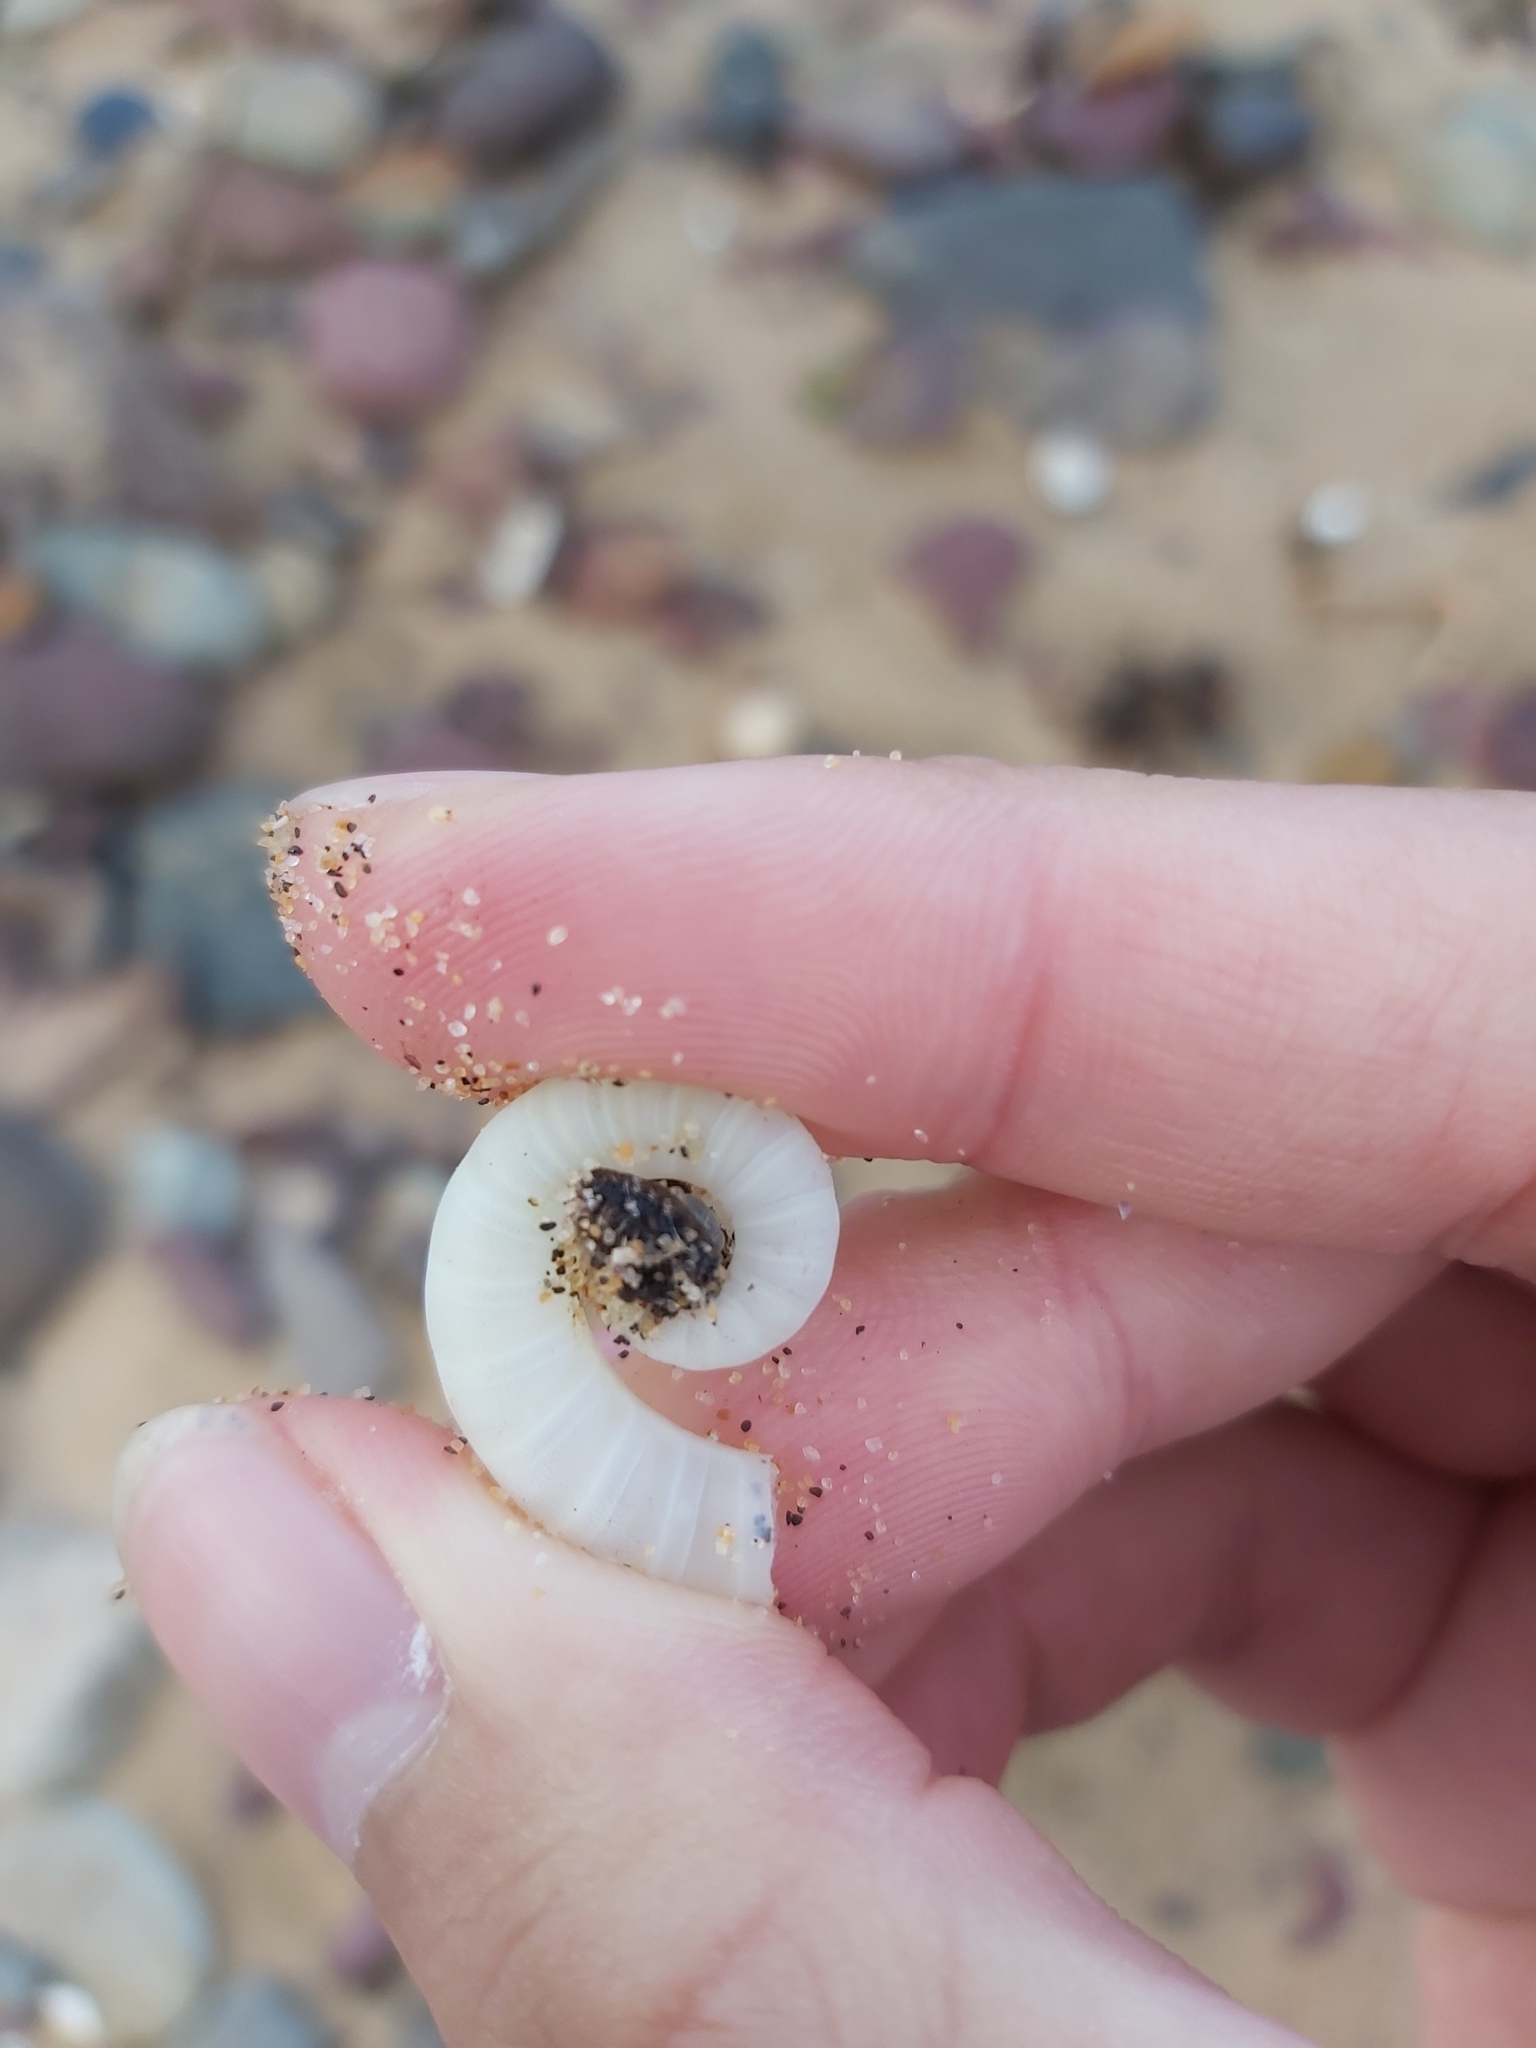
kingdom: Animalia
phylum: Mollusca
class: Cephalopoda
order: Spirulida
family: Spirulidae
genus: Spirula
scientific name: Spirula spirula
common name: Ram's horn squid
